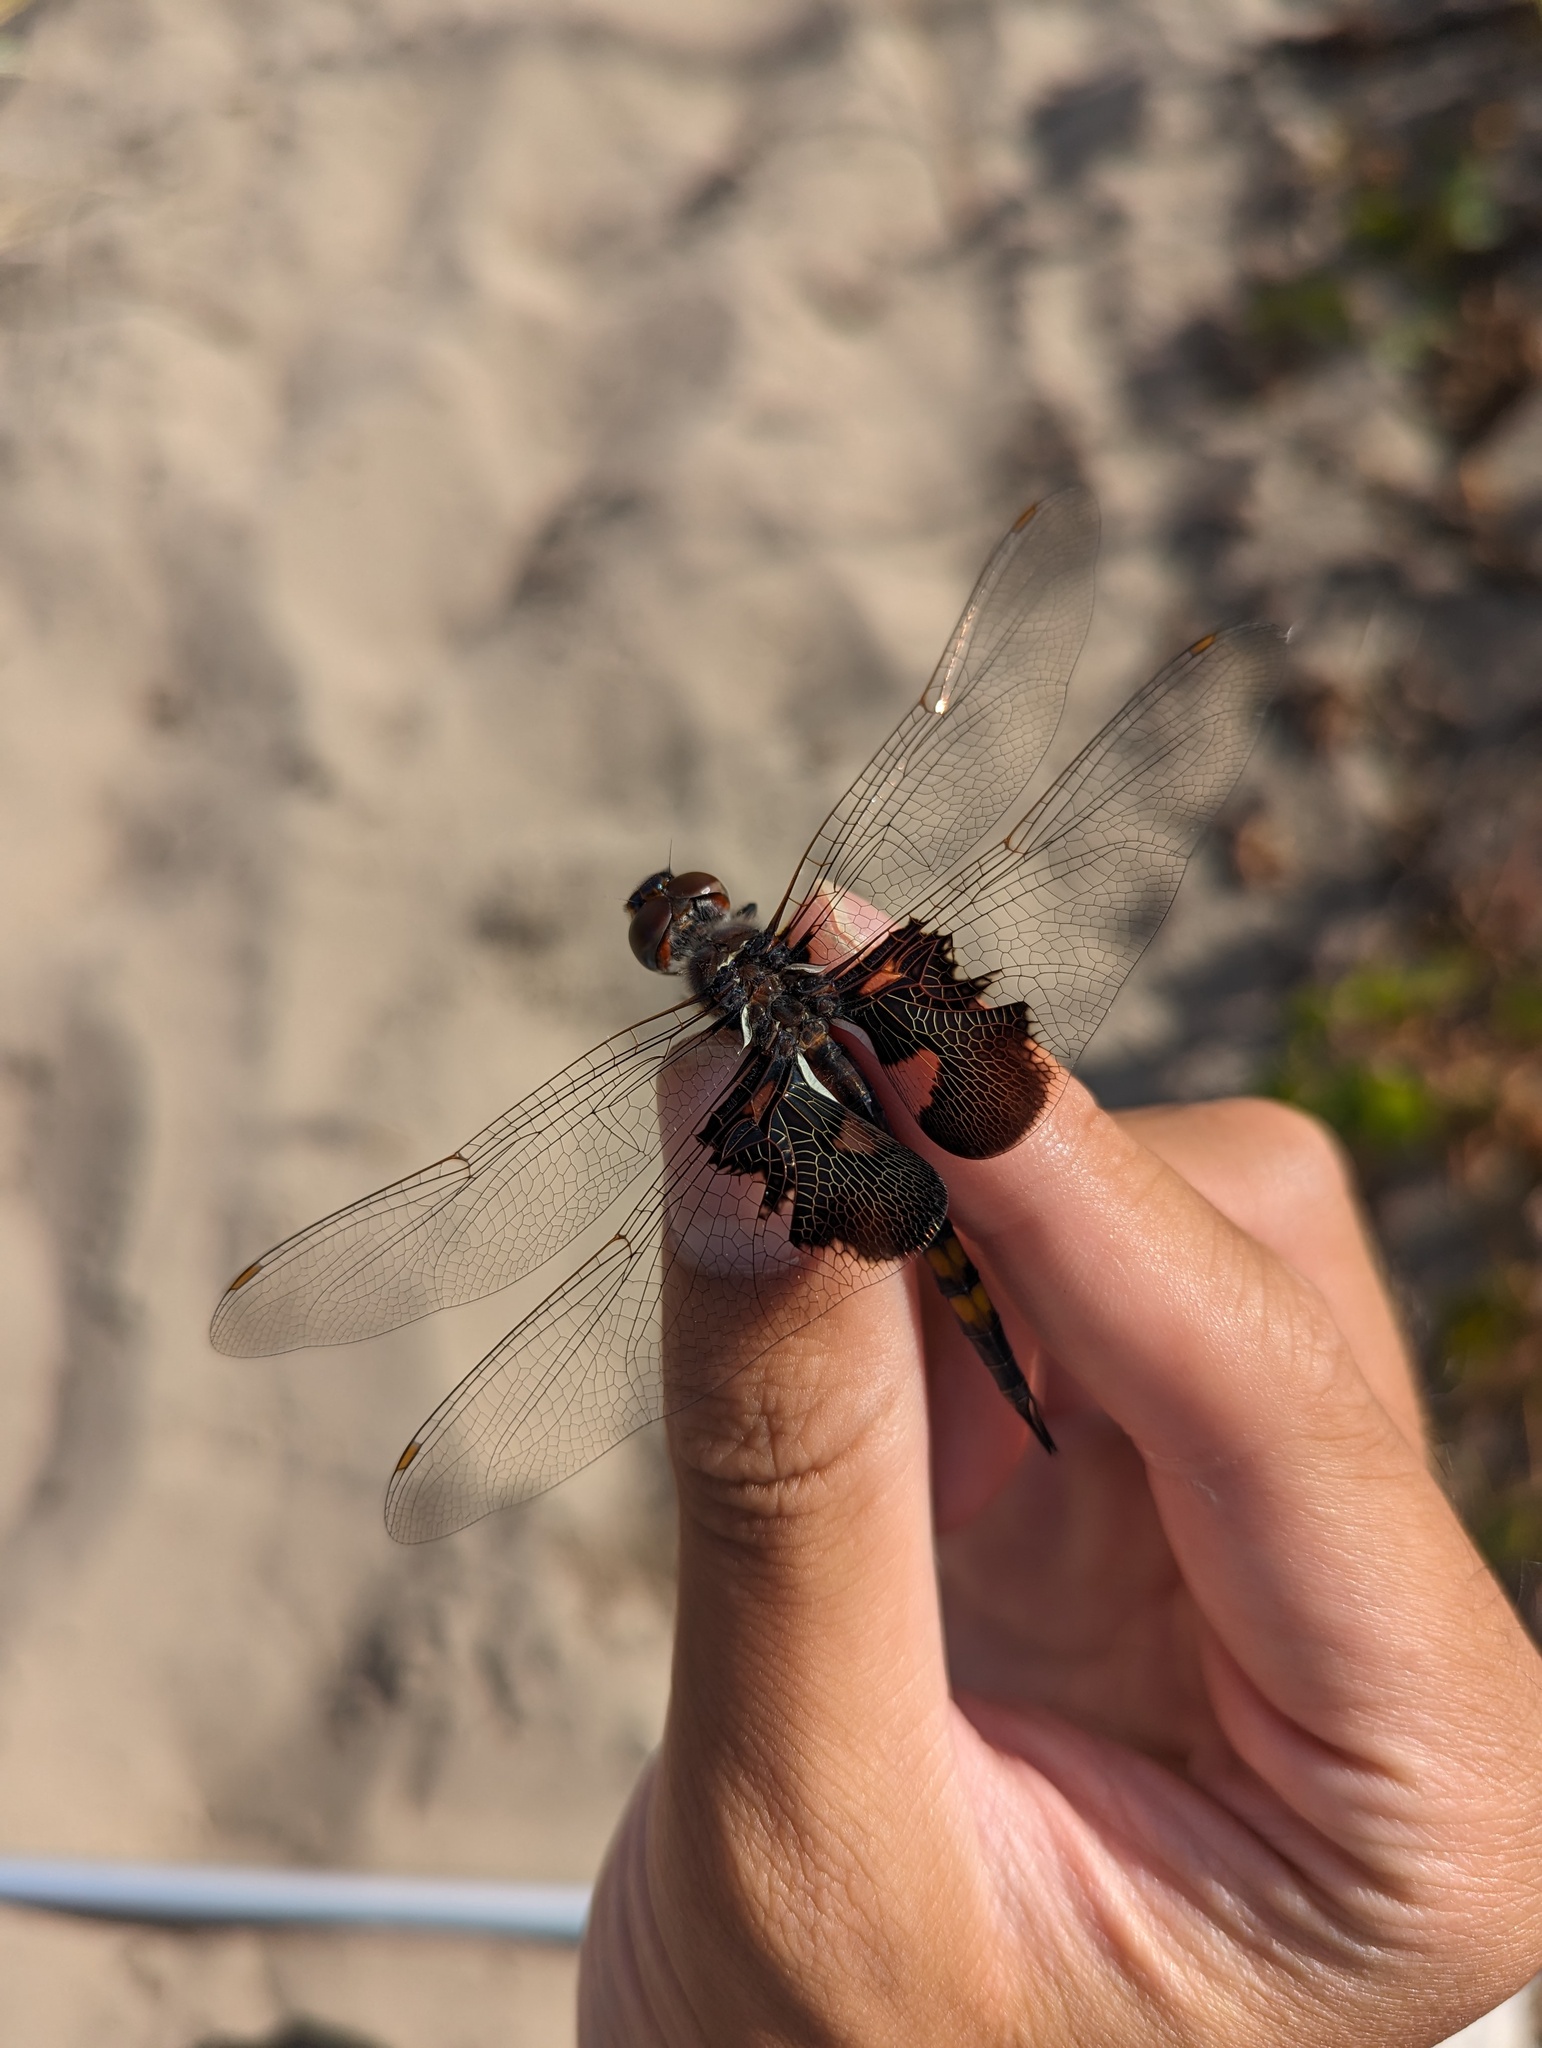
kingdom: Animalia
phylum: Arthropoda
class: Insecta
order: Odonata
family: Libellulidae
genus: Tramea
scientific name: Tramea lacerata
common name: Black saddlebags
